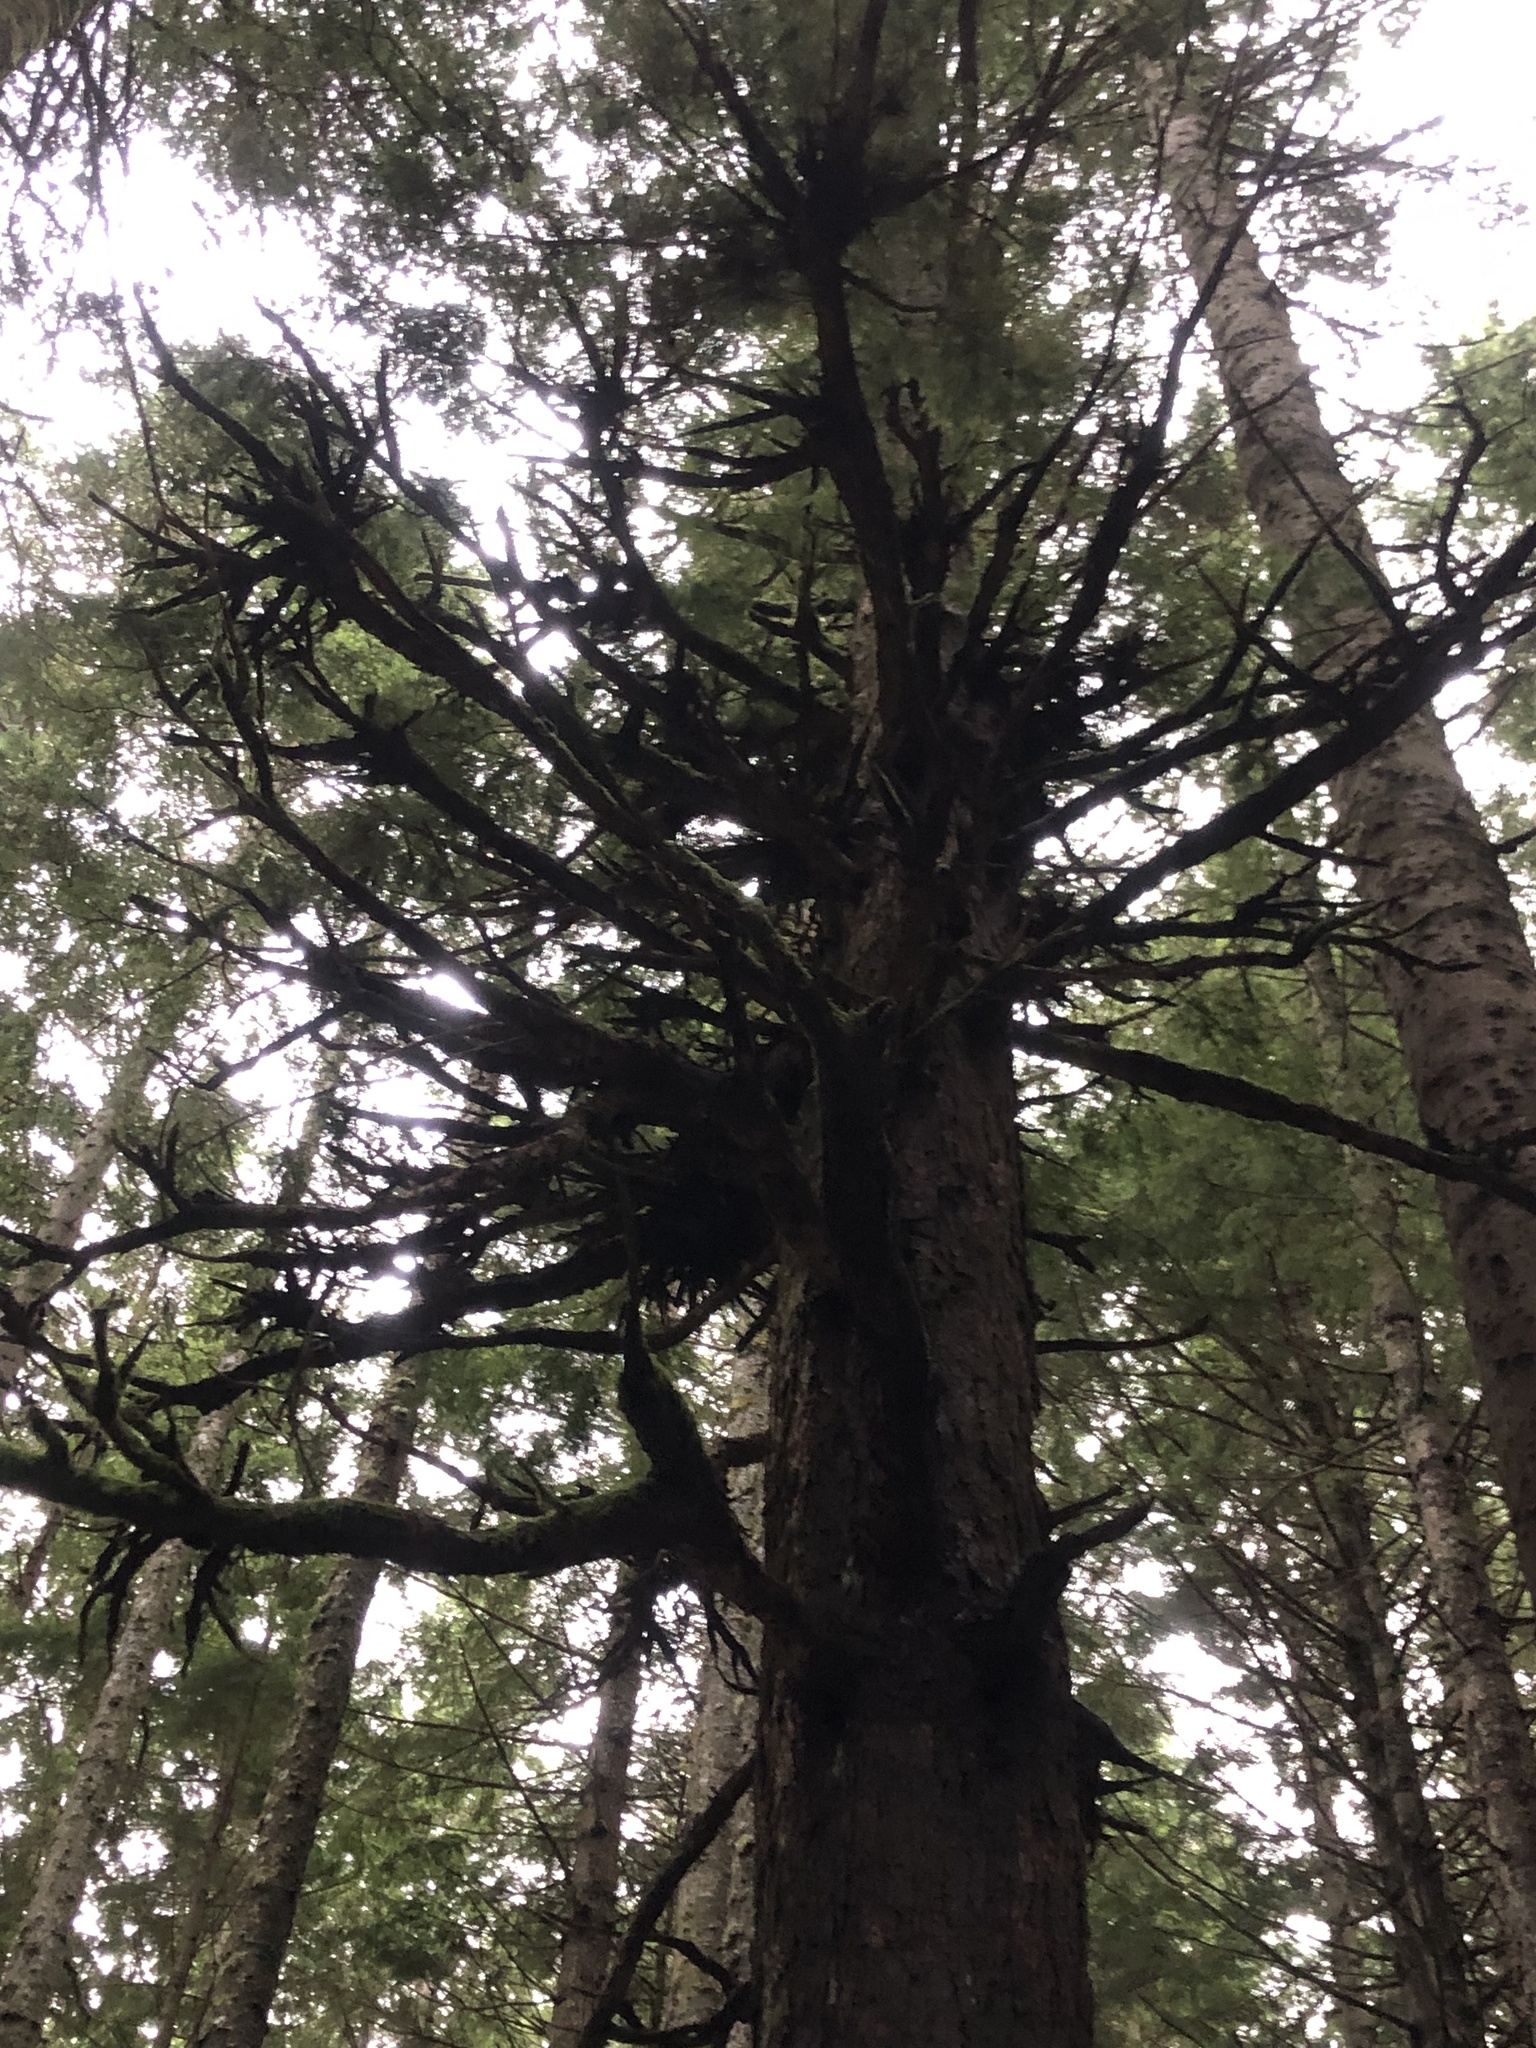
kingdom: Plantae
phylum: Tracheophyta
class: Magnoliopsida
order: Santalales
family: Viscaceae
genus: Arceuthobium
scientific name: Arceuthobium campylopodum
